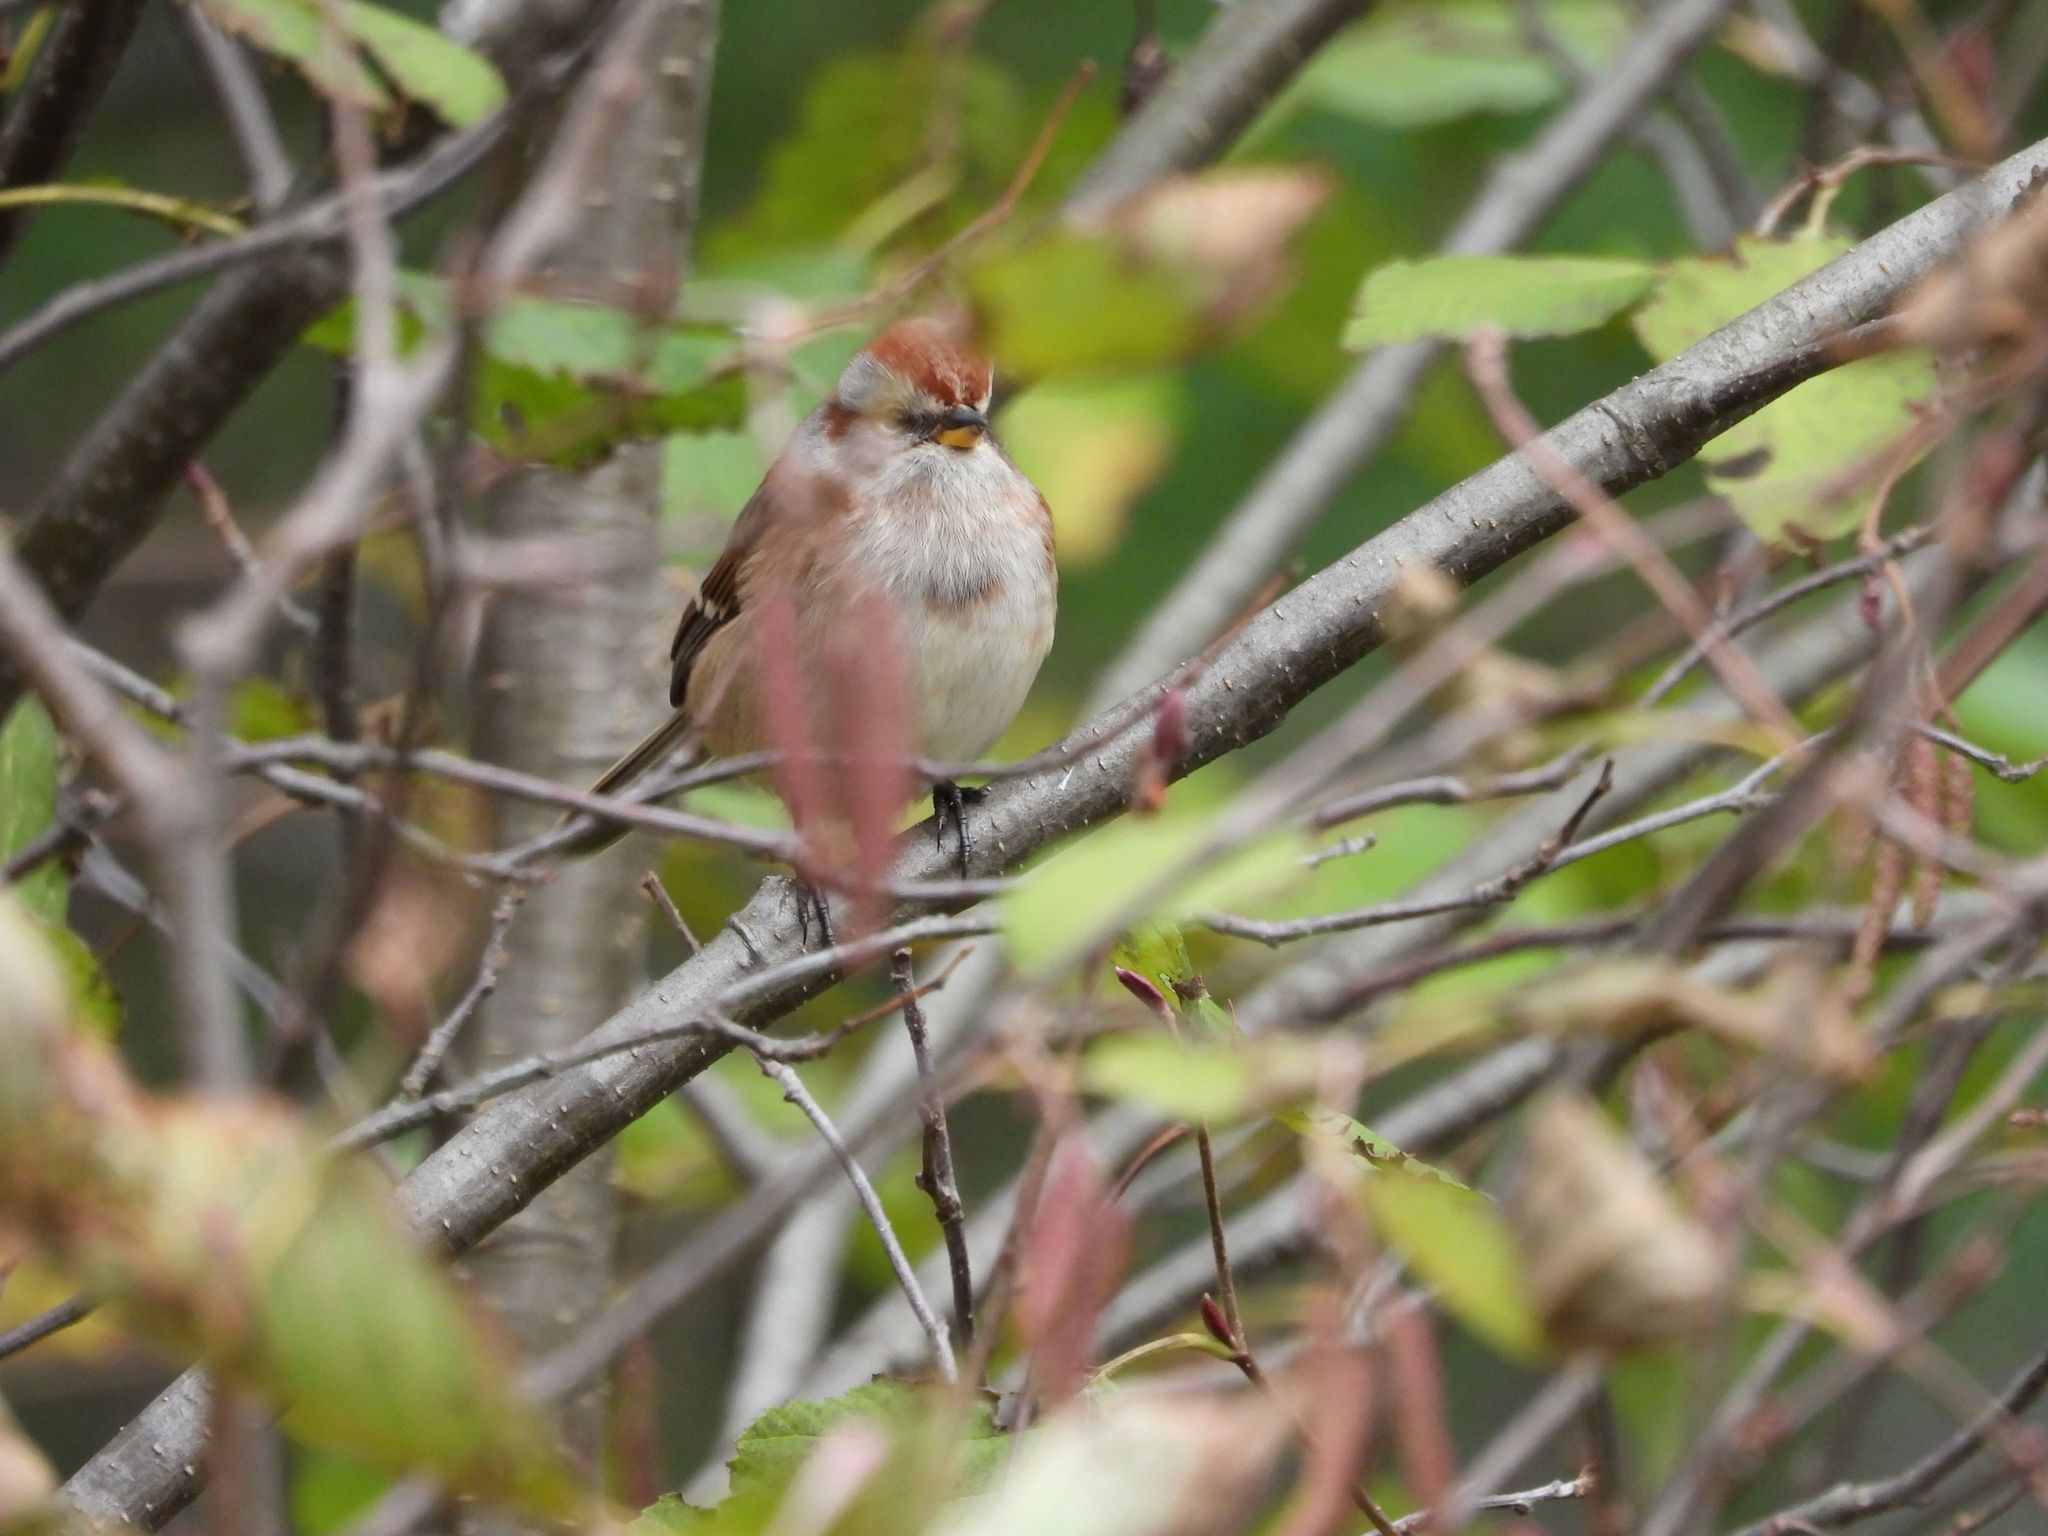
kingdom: Animalia
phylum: Chordata
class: Aves
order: Passeriformes
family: Passerellidae
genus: Spizelloides
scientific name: Spizelloides arborea
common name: American tree sparrow
